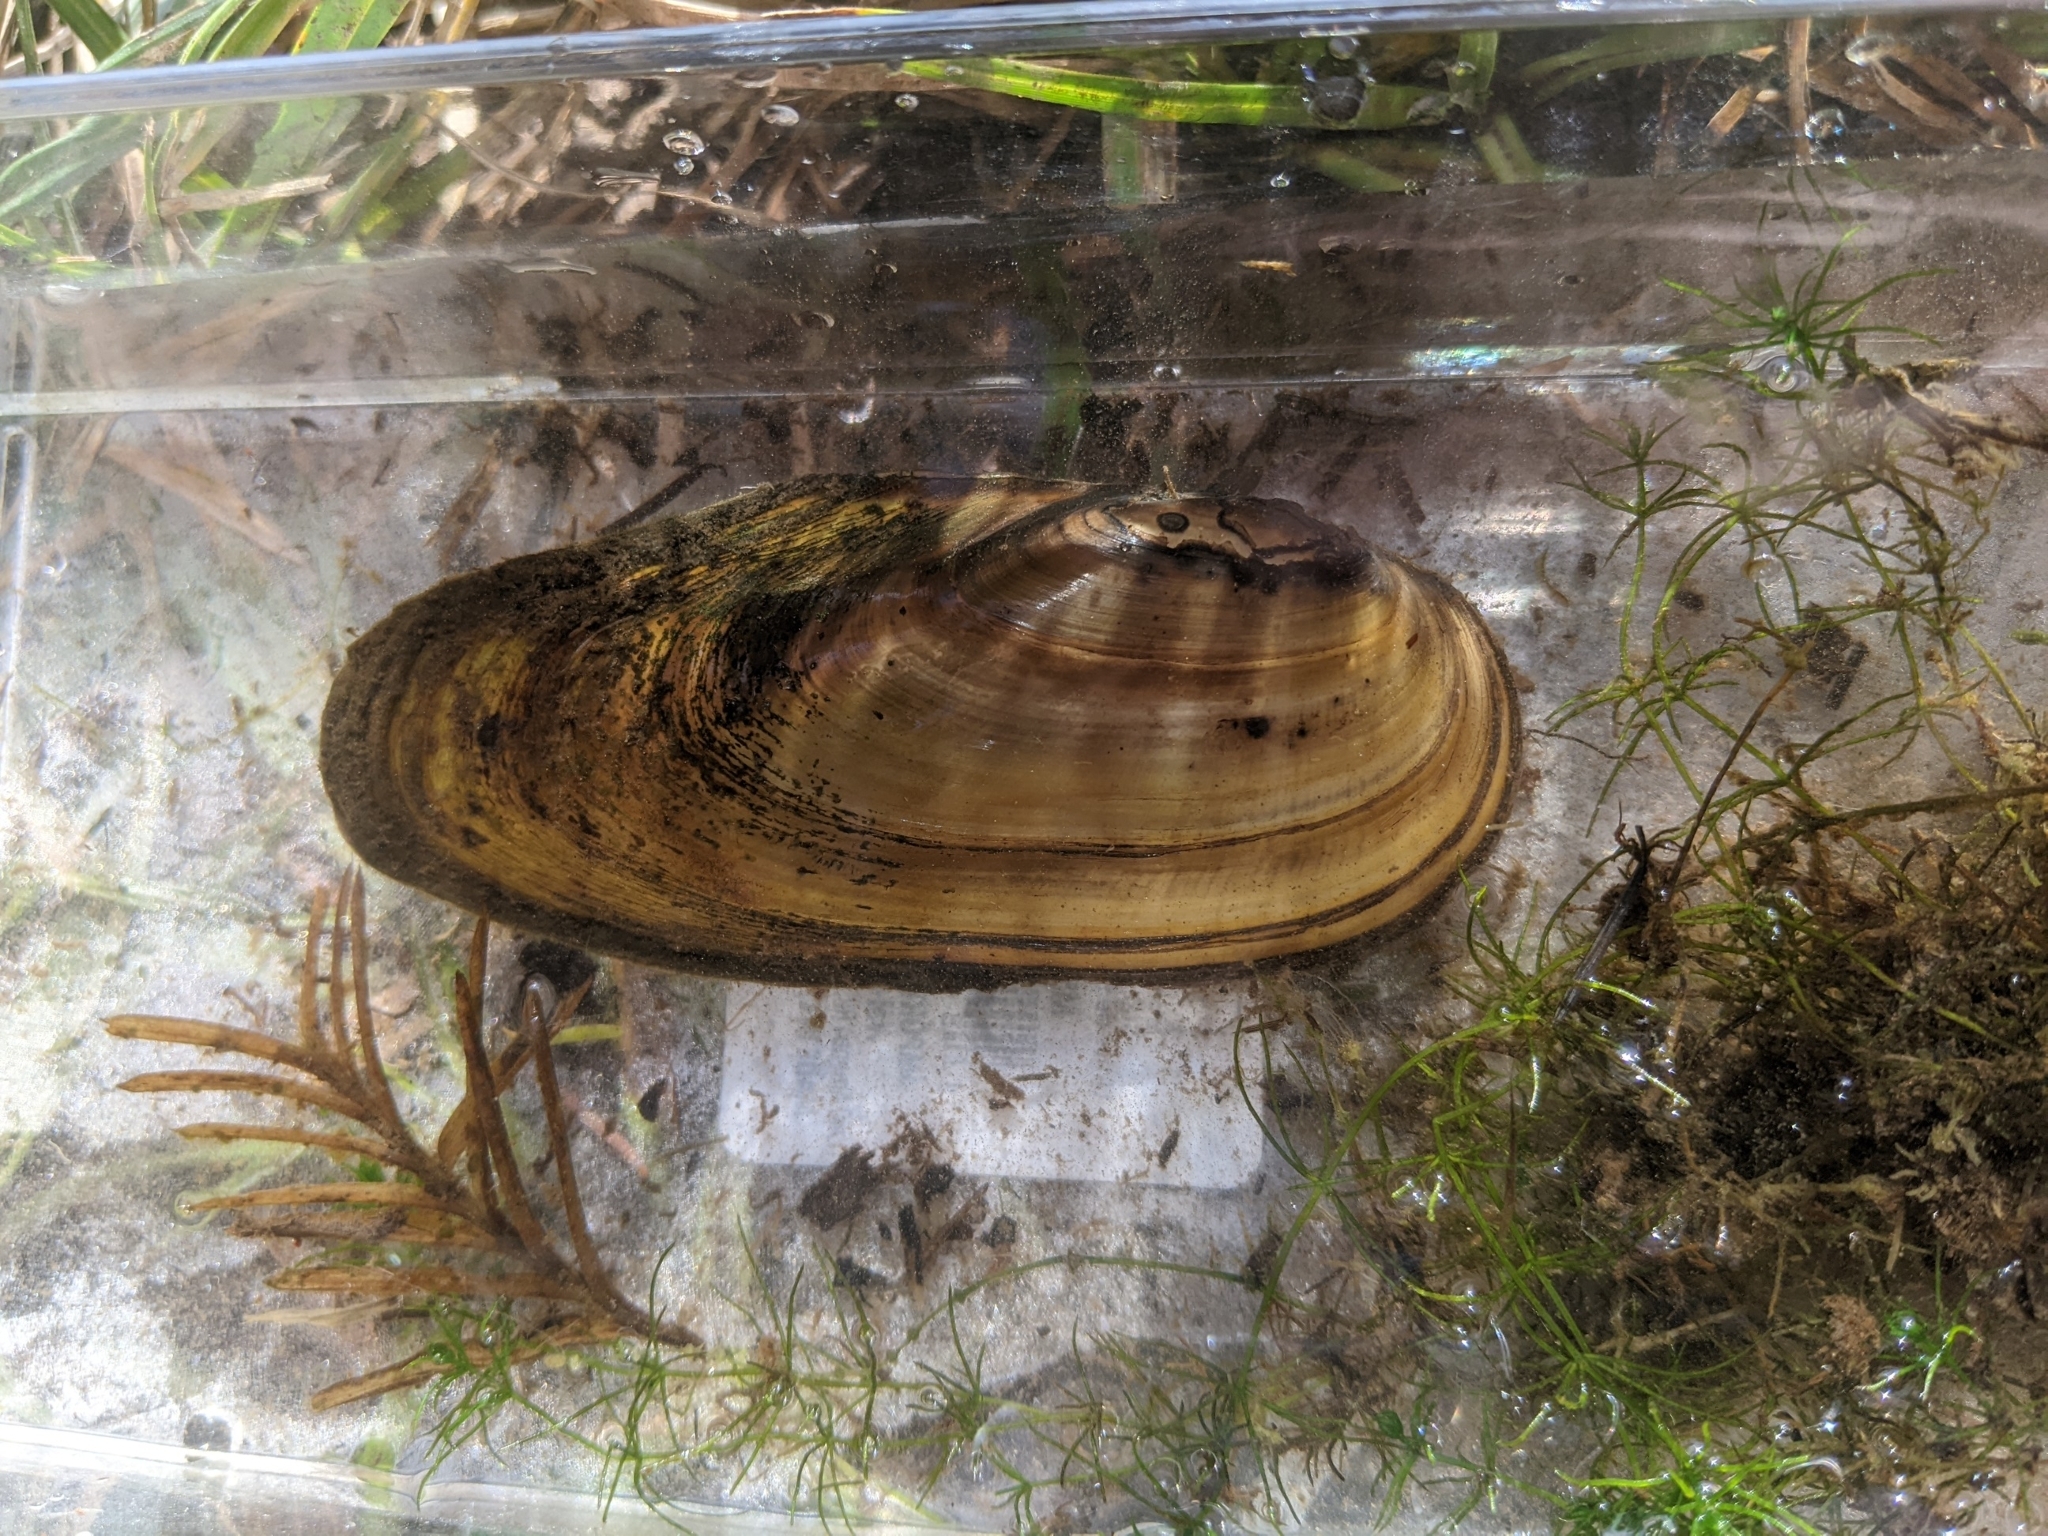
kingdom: Animalia
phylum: Mollusca
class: Bivalvia
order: Unionida
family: Unionidae
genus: Anodonta
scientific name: Anodonta kennerlyi
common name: Western floater
